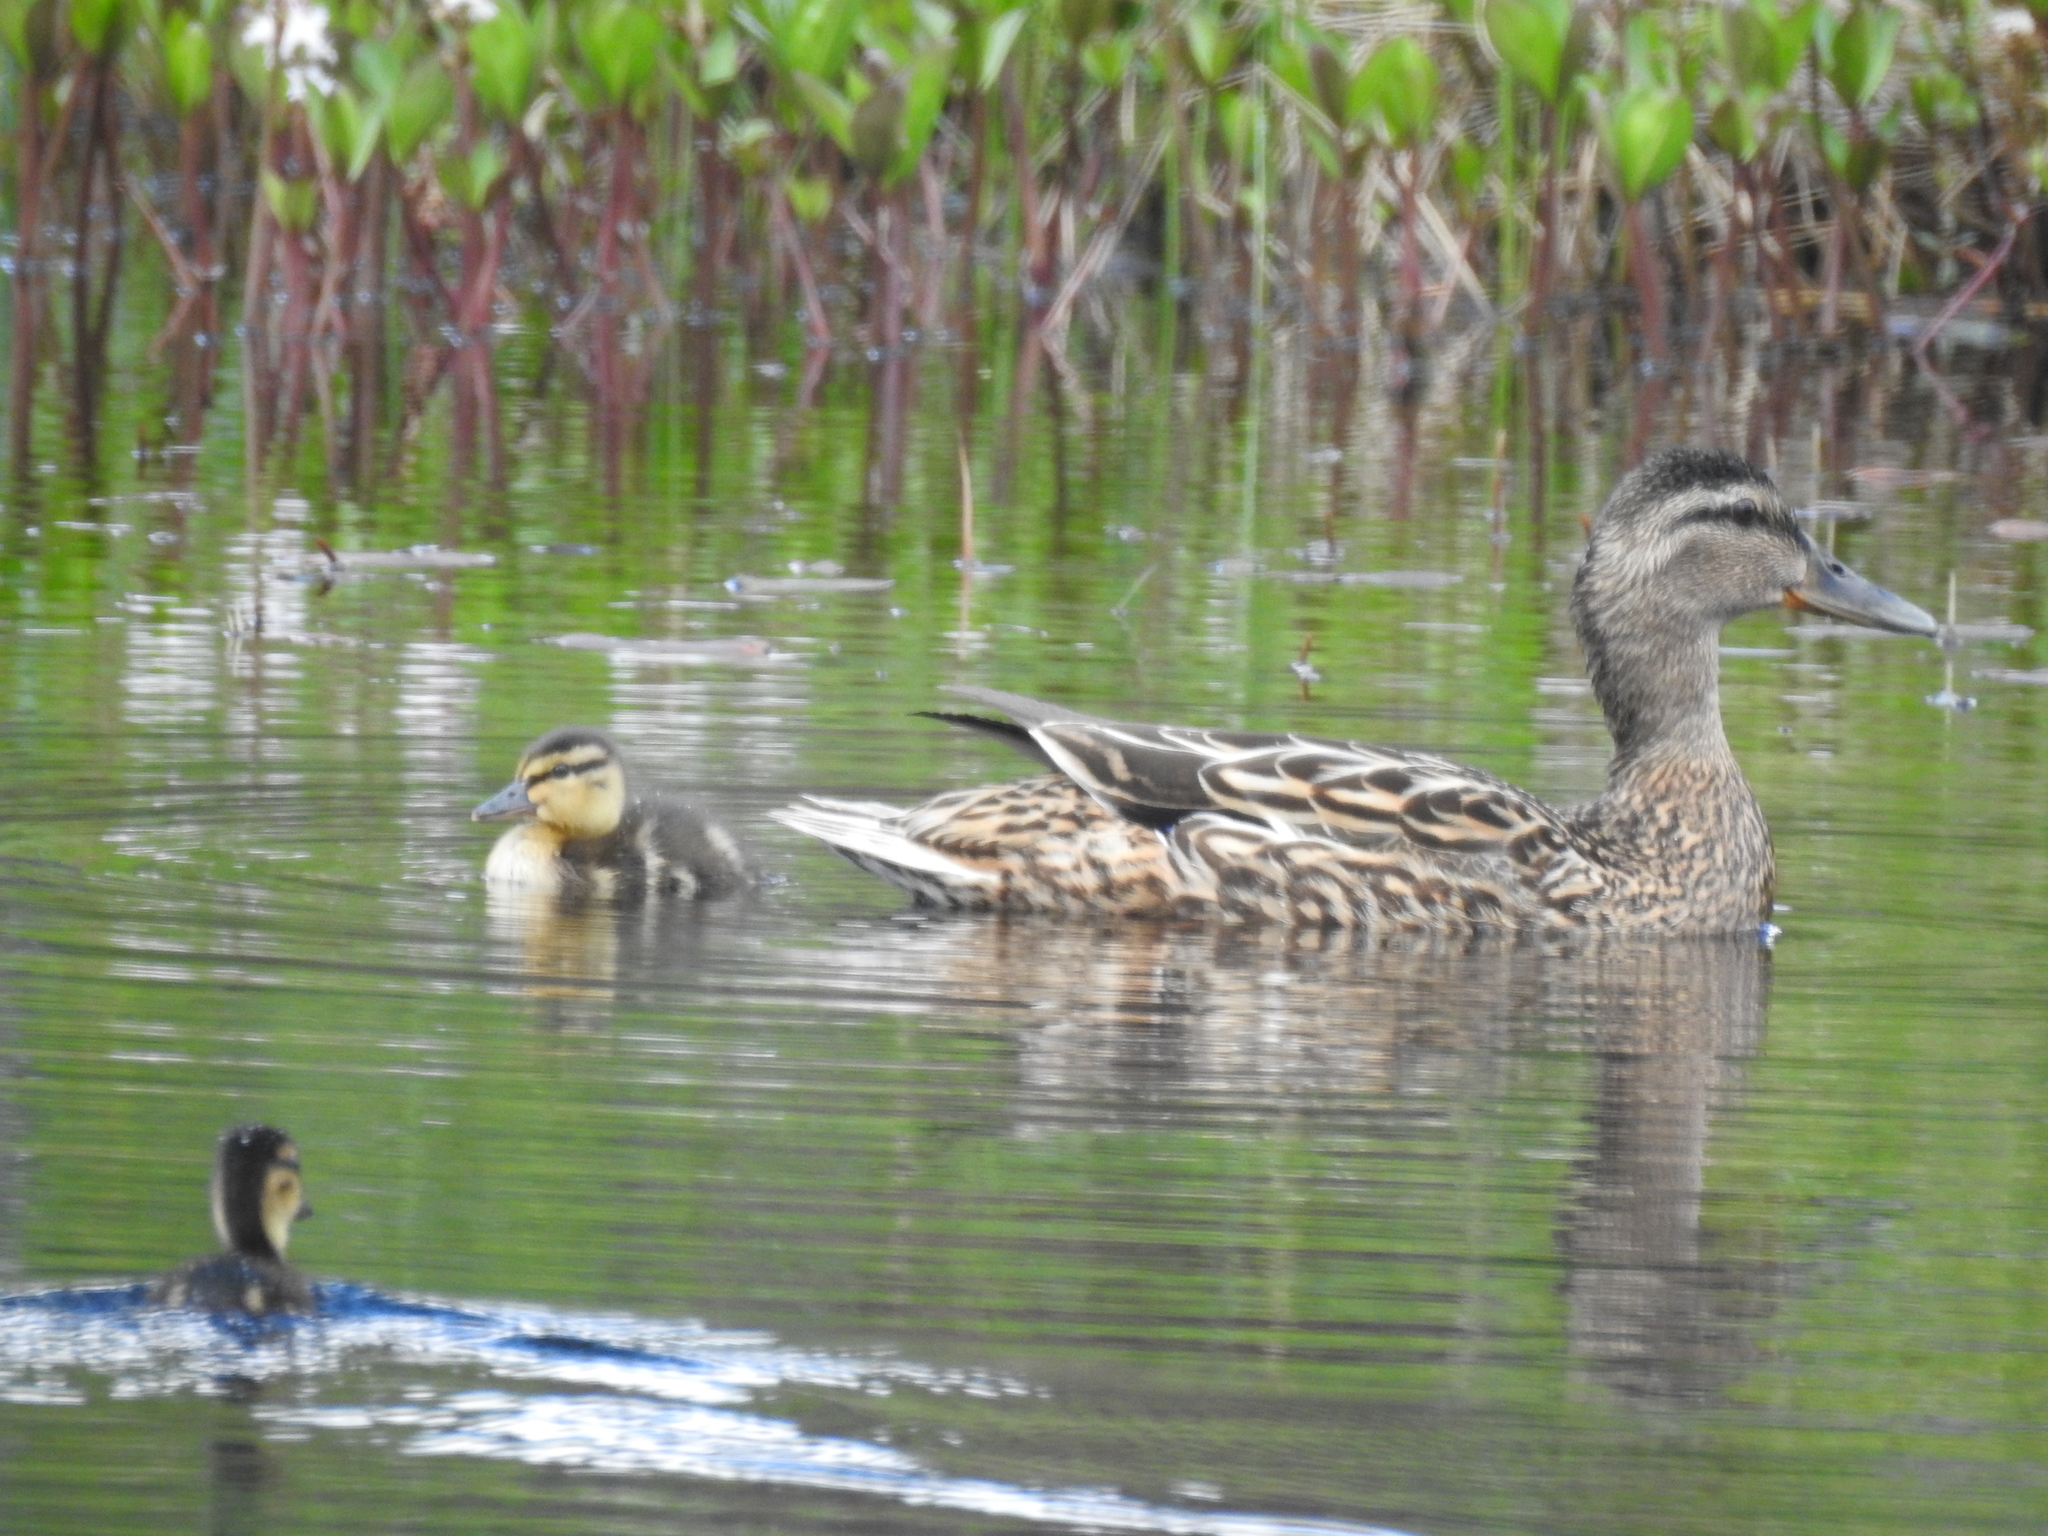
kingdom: Animalia
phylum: Chordata
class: Aves
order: Anseriformes
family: Anatidae
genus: Anas
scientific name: Anas platyrhynchos
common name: Mallard
